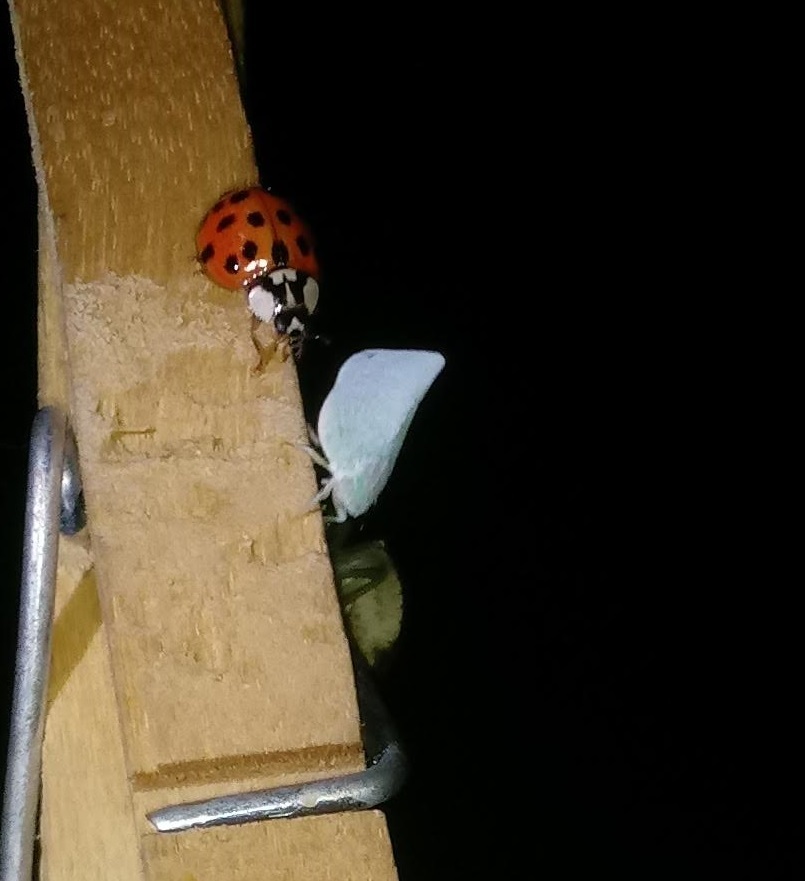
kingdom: Animalia
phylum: Arthropoda
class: Insecta
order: Hemiptera
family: Flatidae
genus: Flatormenis
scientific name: Flatormenis proxima
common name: Northern flatid planthopper
